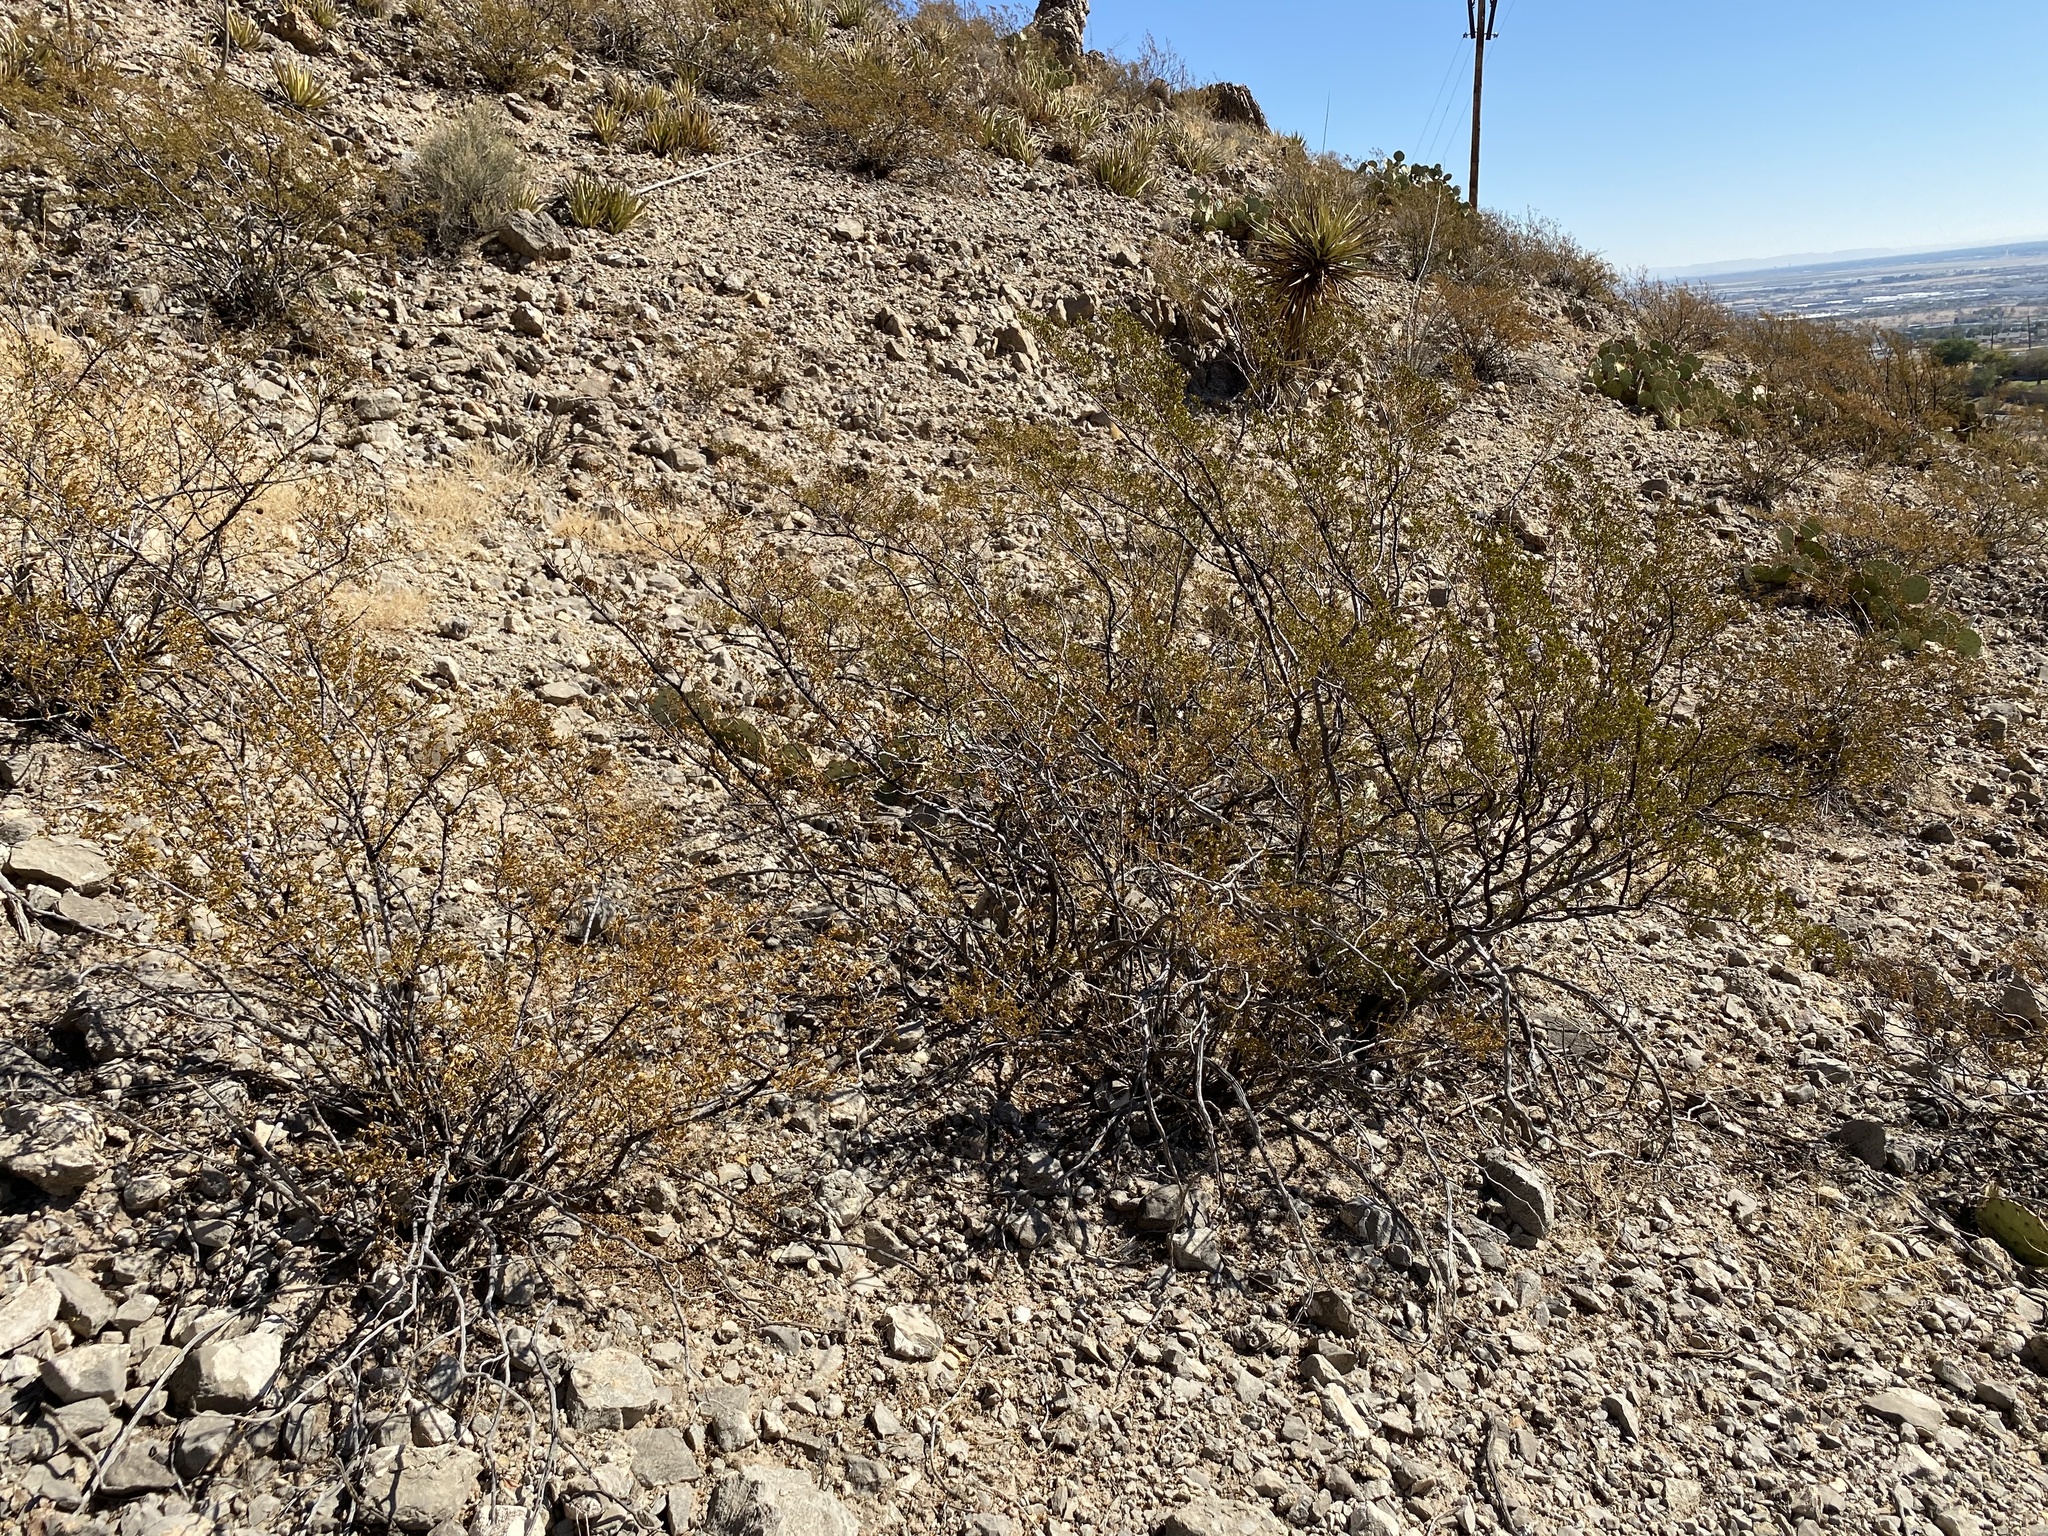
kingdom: Plantae
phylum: Tracheophyta
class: Magnoliopsida
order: Zygophyllales
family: Zygophyllaceae
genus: Larrea
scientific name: Larrea tridentata
